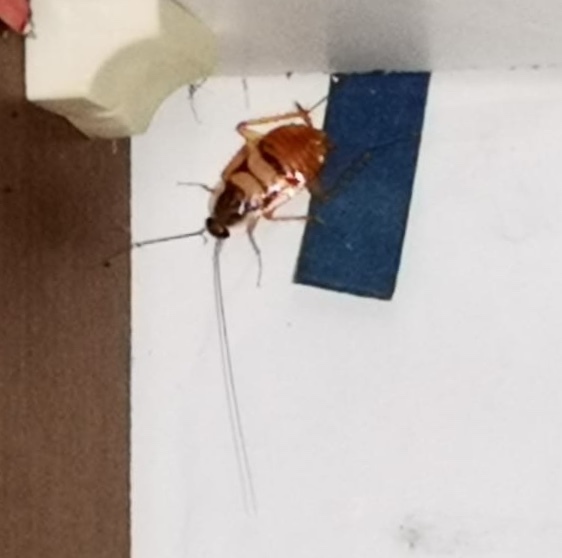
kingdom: Animalia
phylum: Arthropoda
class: Insecta
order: Blattodea
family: Ectobiidae
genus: Supella
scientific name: Supella longipalpa
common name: Brown-banded cockroach
